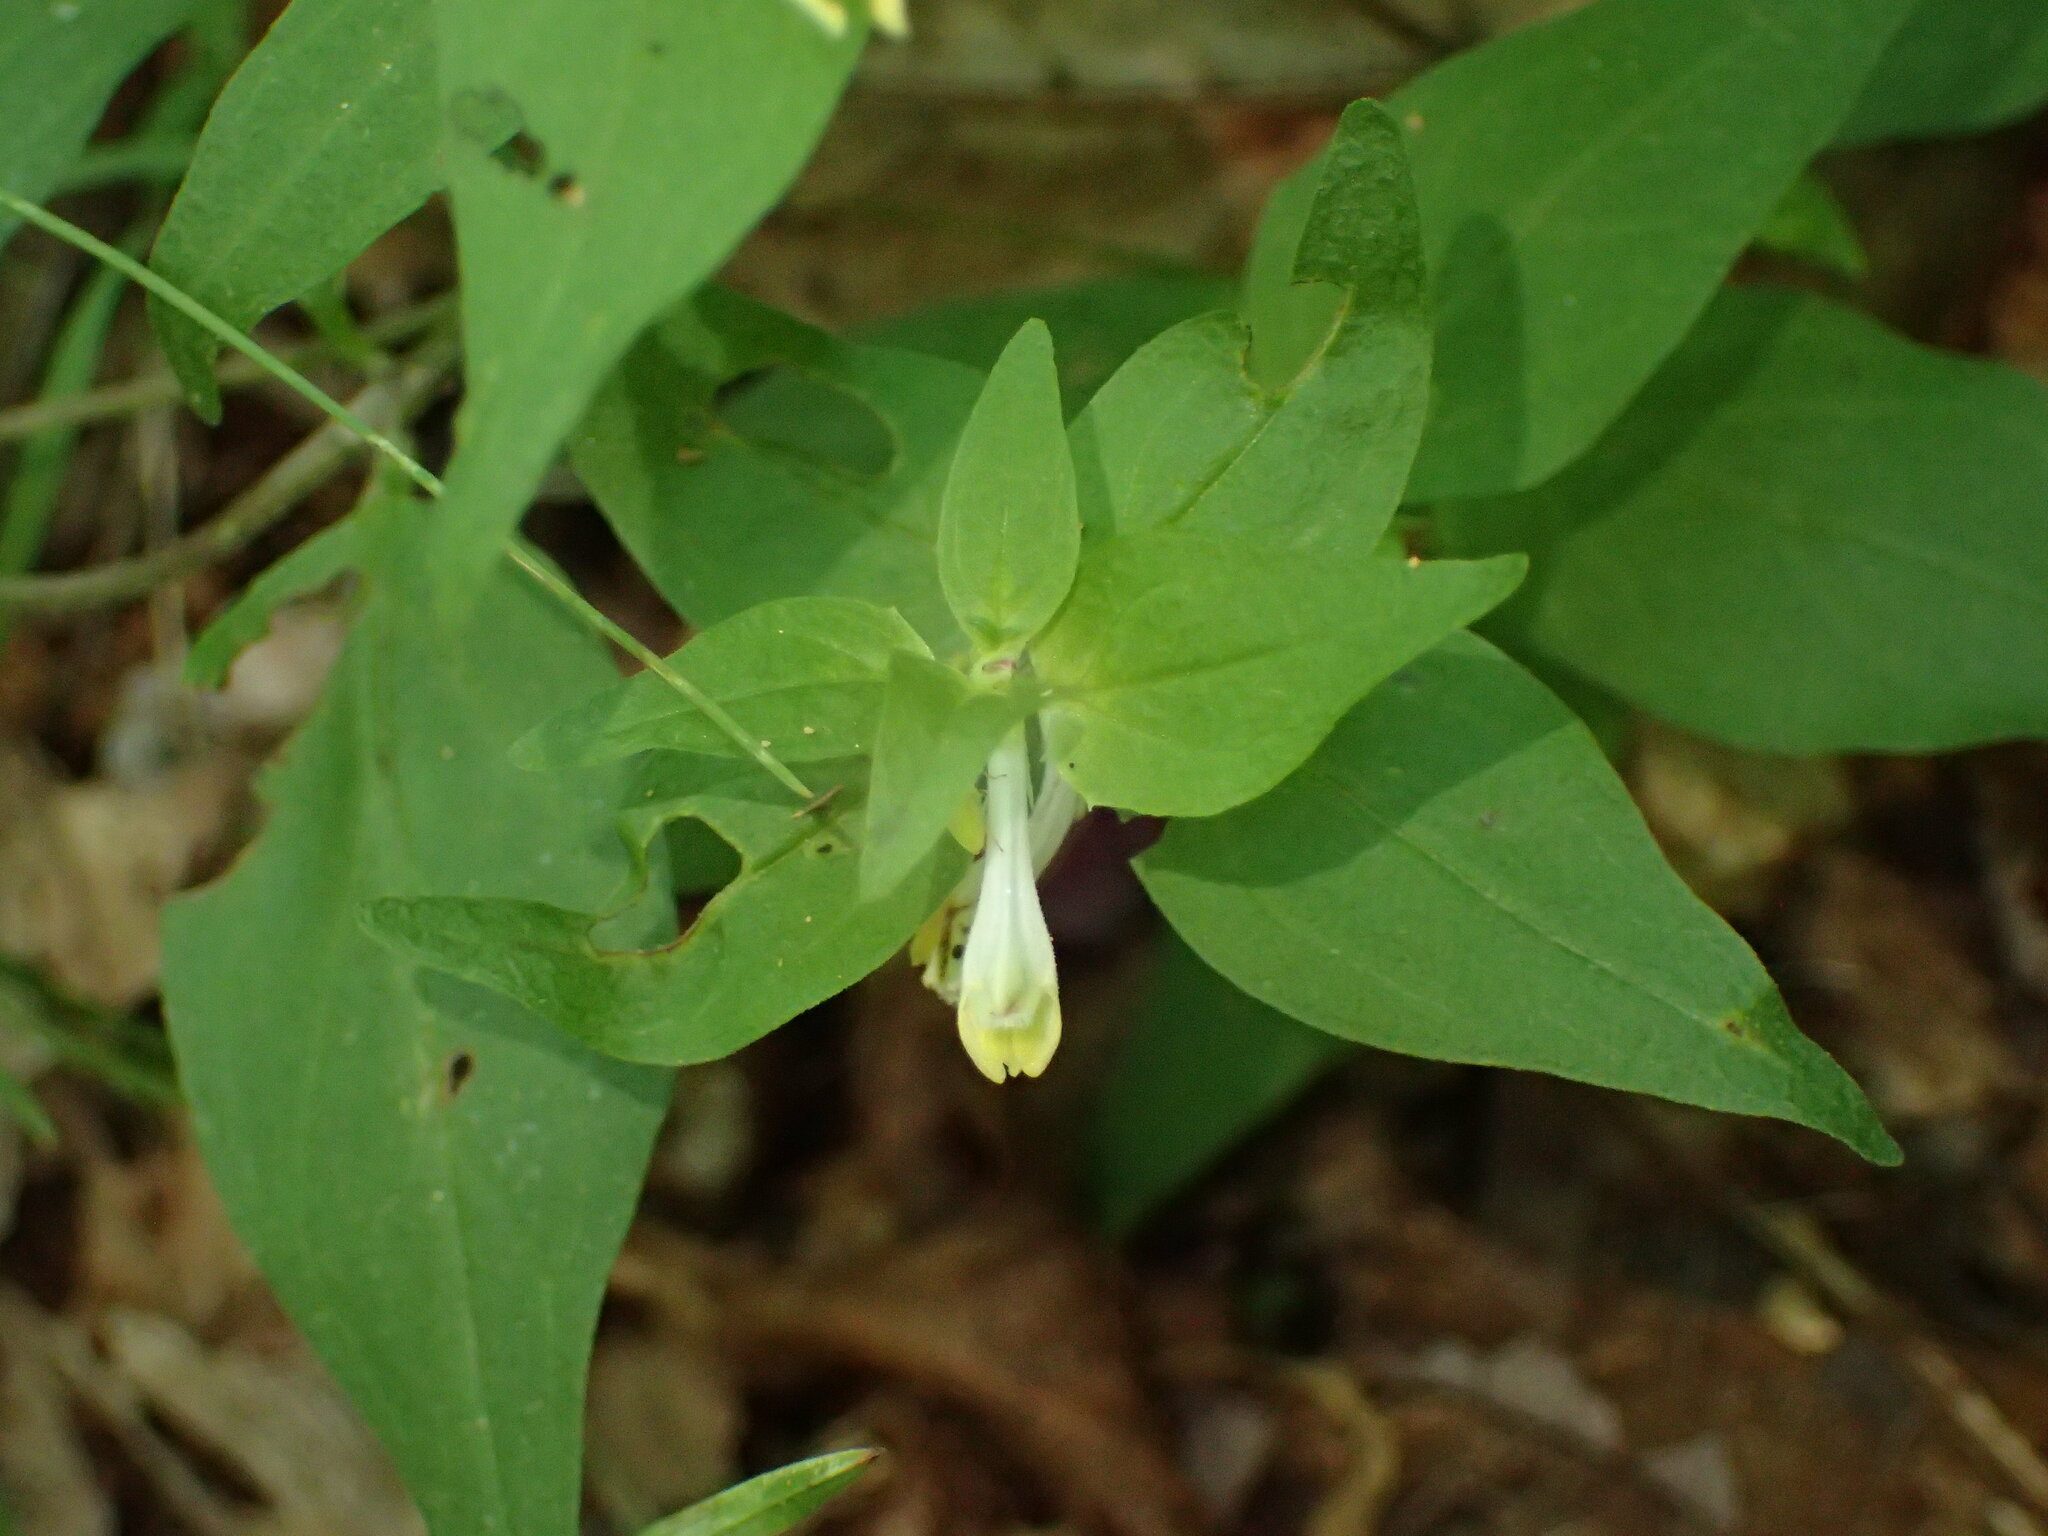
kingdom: Plantae
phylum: Tracheophyta
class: Magnoliopsida
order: Lamiales
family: Orobanchaceae
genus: Melampyrum
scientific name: Melampyrum lineare
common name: American cow-wheat
